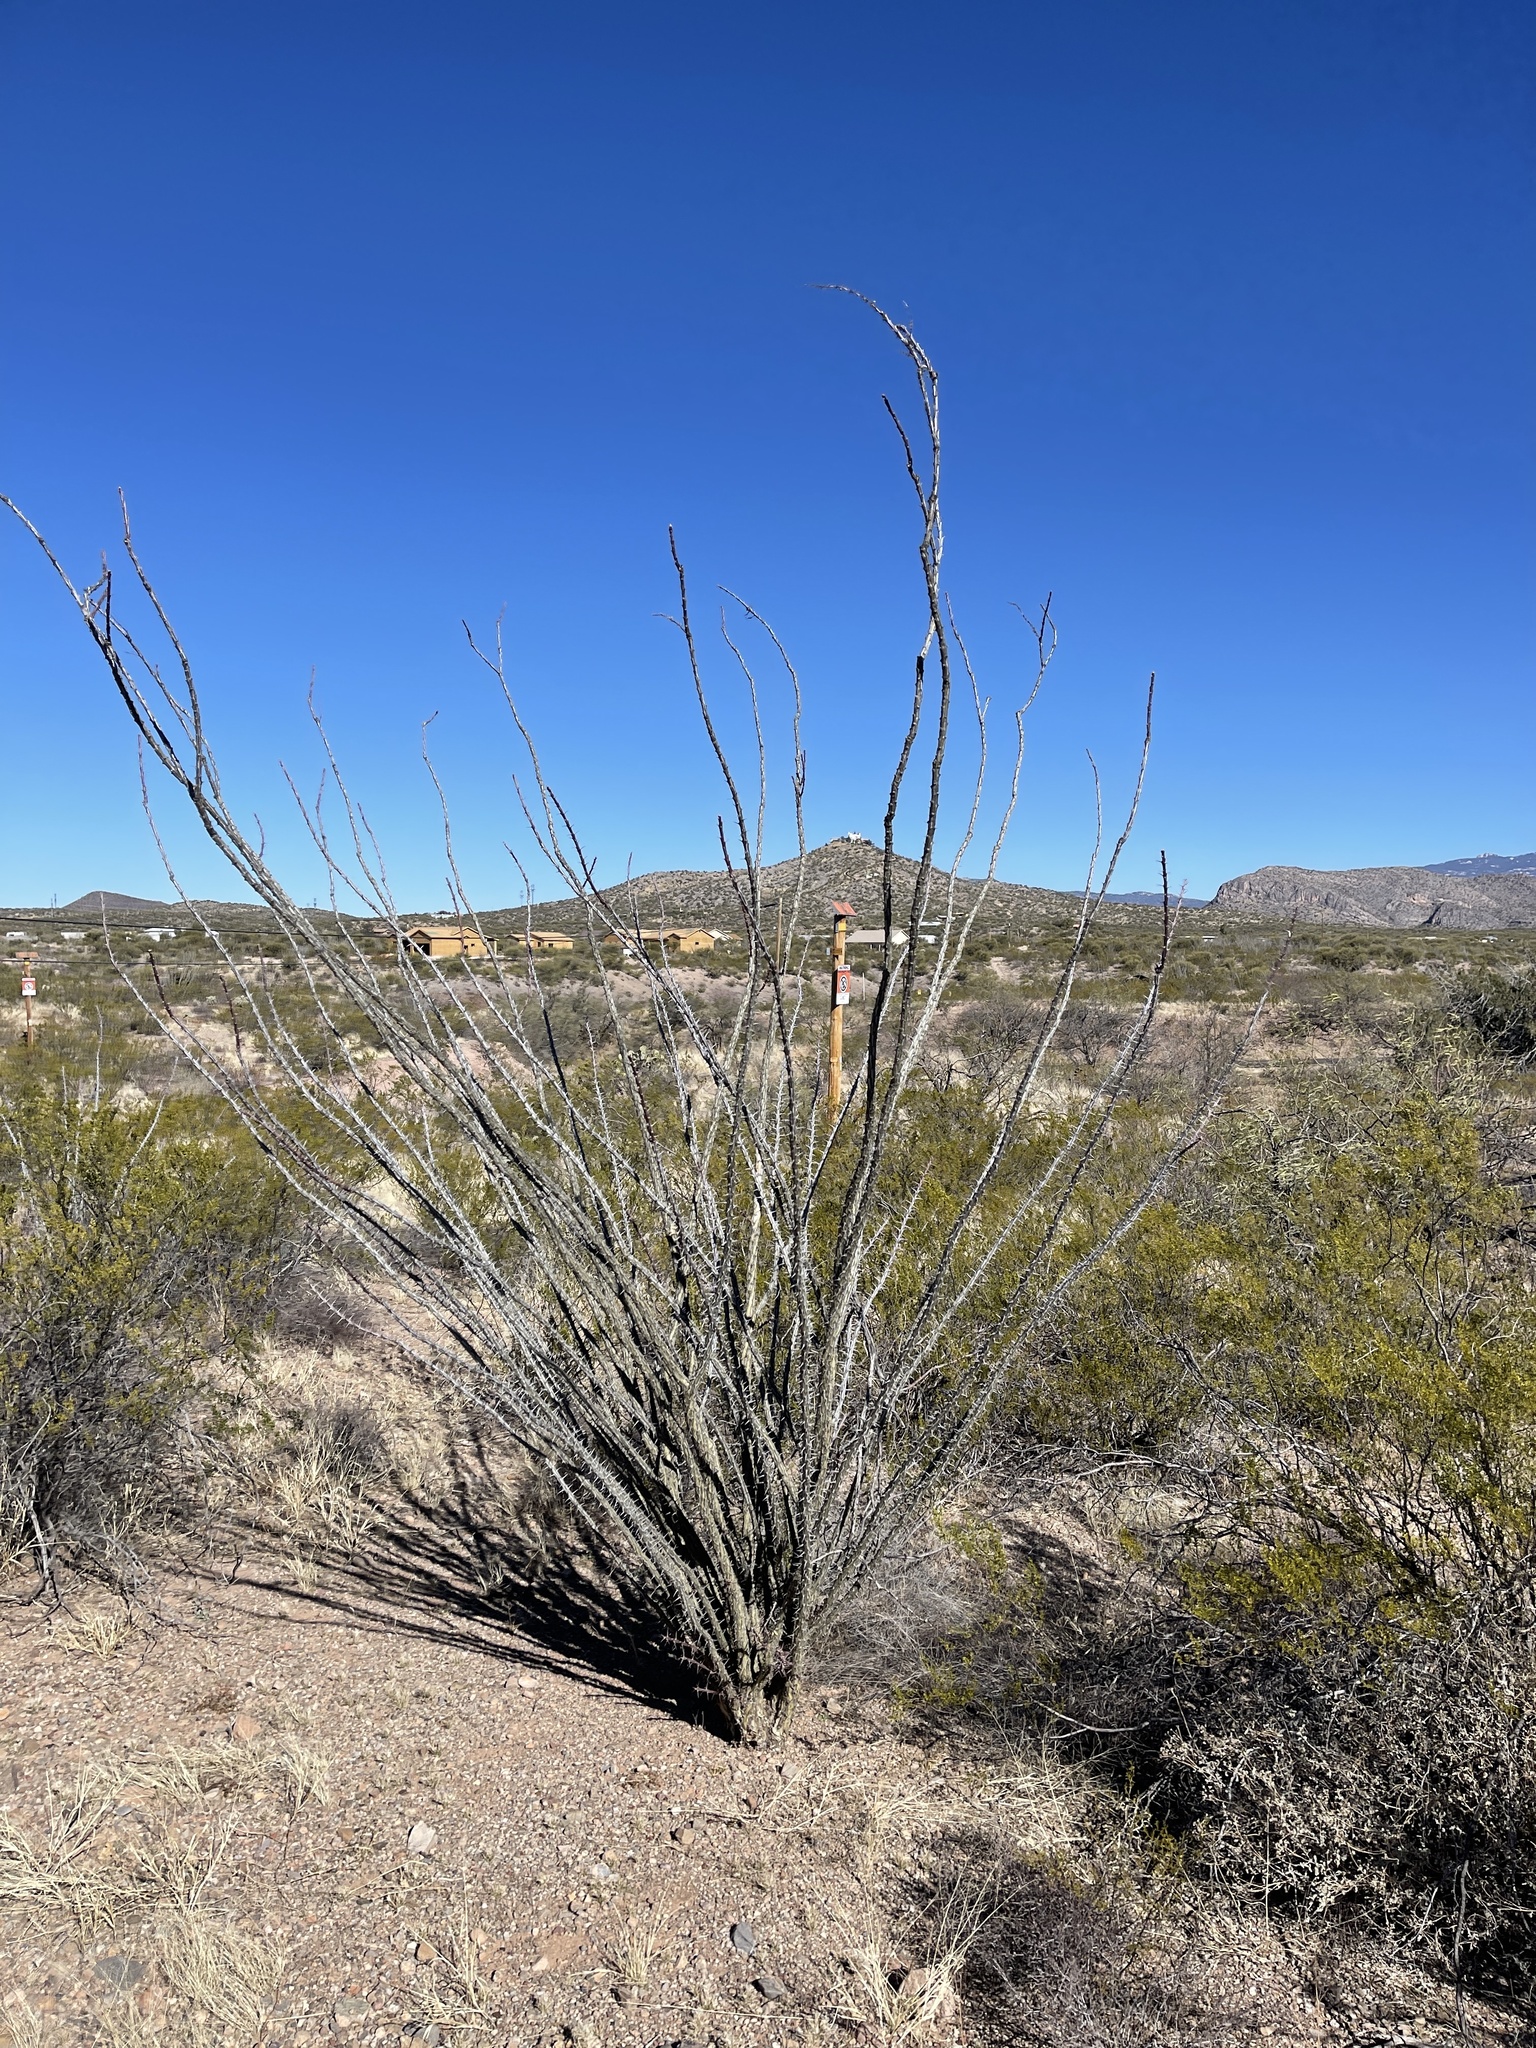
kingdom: Plantae
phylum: Tracheophyta
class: Magnoliopsida
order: Ericales
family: Fouquieriaceae
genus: Fouquieria
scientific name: Fouquieria splendens
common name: Vine-cactus
